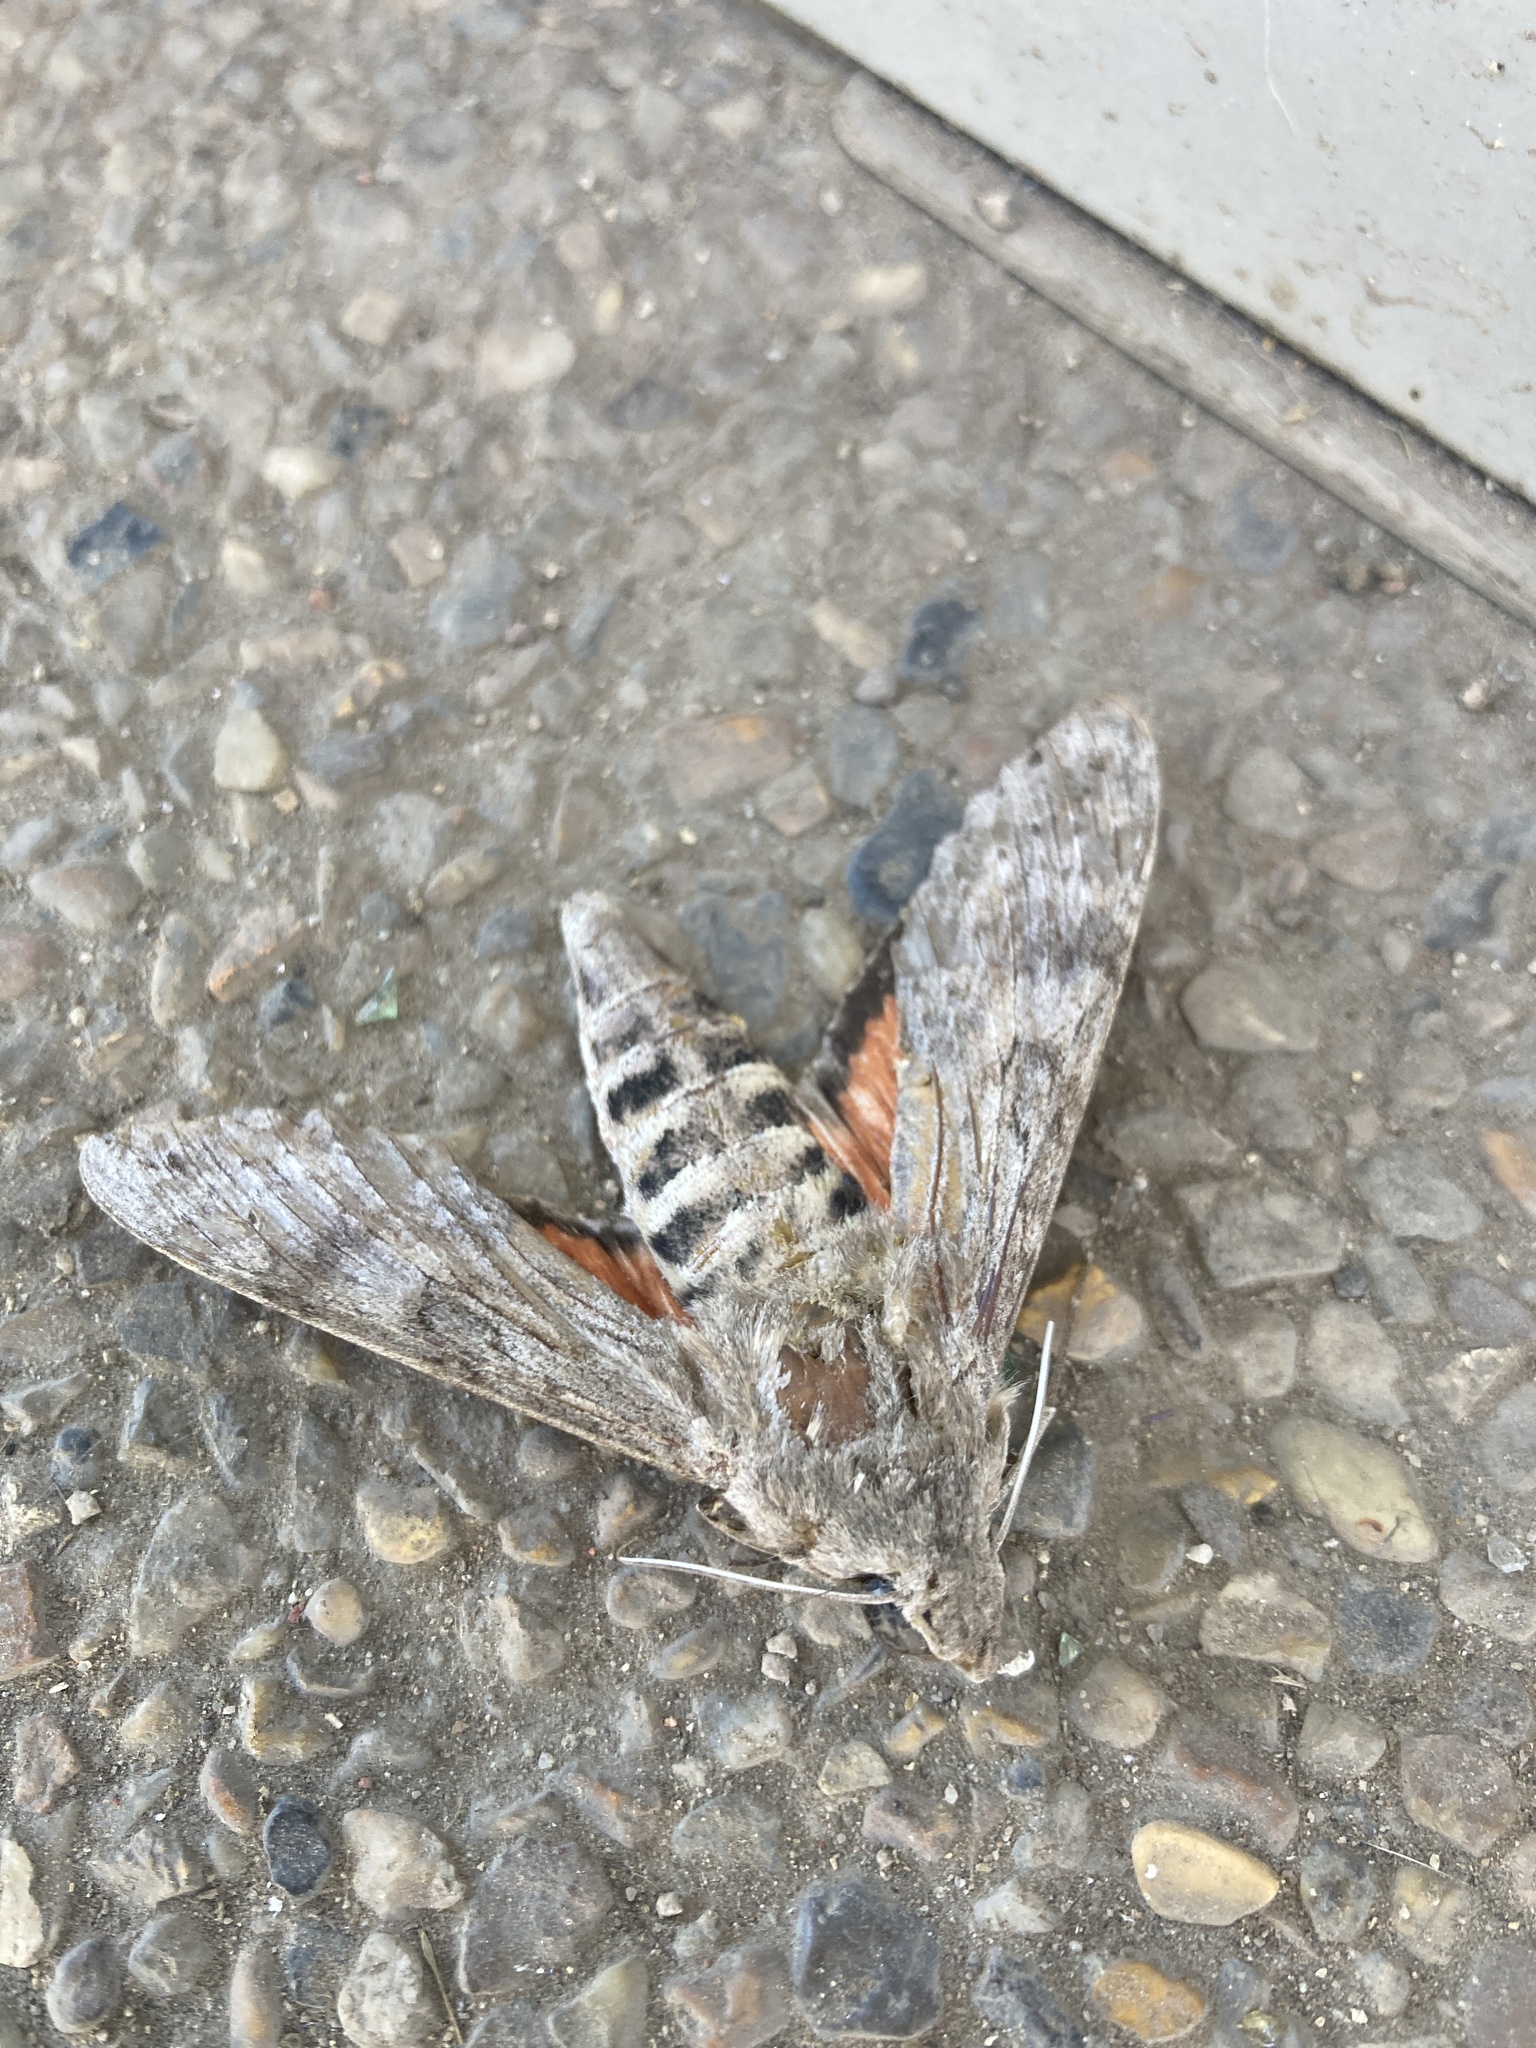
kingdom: Animalia
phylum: Arthropoda
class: Insecta
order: Lepidoptera
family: Sphingidae
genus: Erinnyis
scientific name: Erinnyis ello
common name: Ello sphinx
